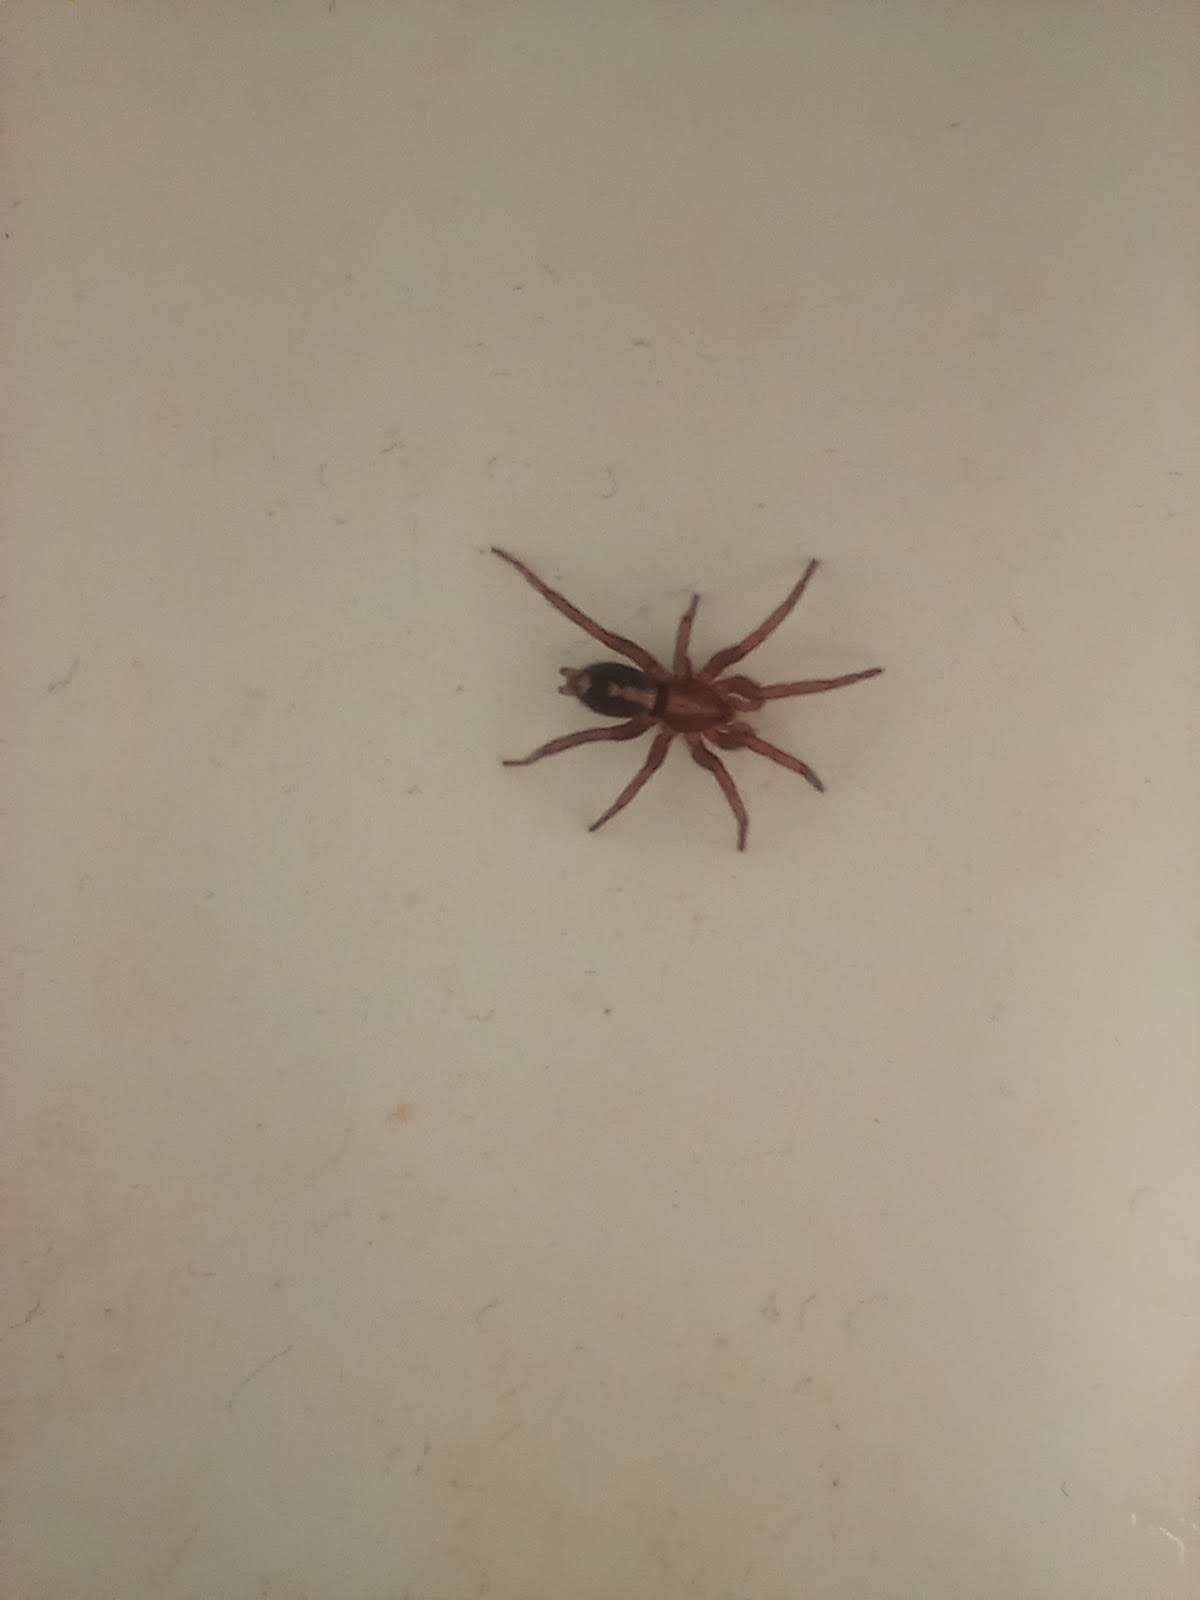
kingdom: Animalia
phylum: Arthropoda
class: Arachnida
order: Araneae
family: Gnaphosidae
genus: Herpyllus
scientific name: Herpyllus propinquus
